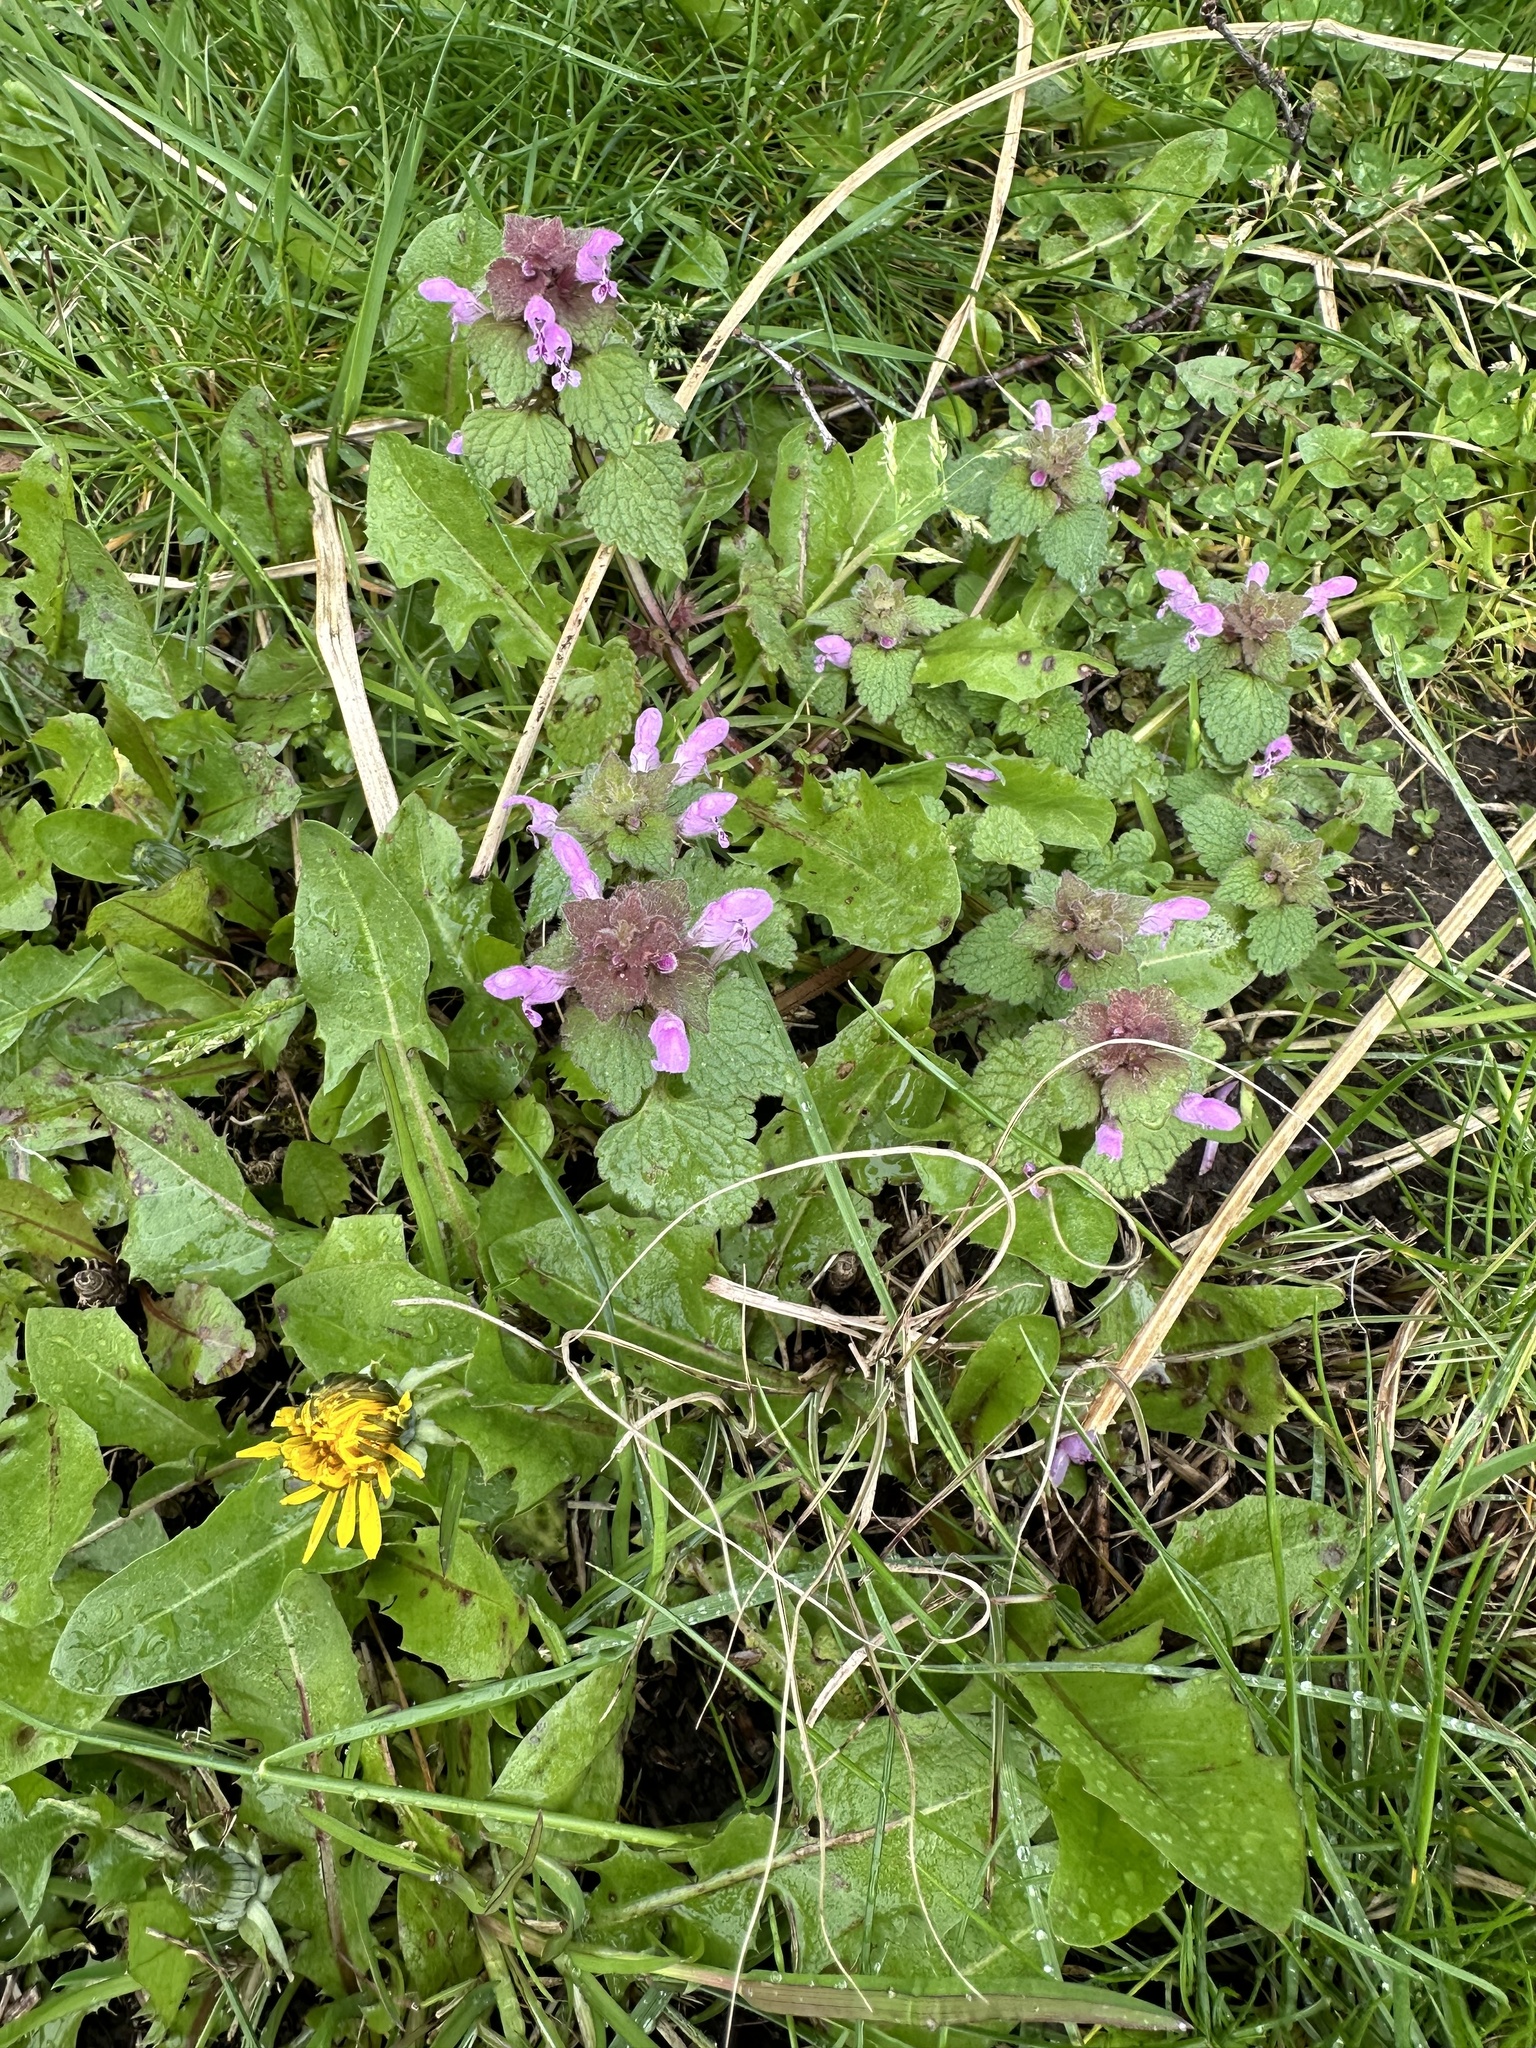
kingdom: Plantae
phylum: Tracheophyta
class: Magnoliopsida
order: Lamiales
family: Lamiaceae
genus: Lamium
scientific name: Lamium purpureum
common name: Red dead-nettle
